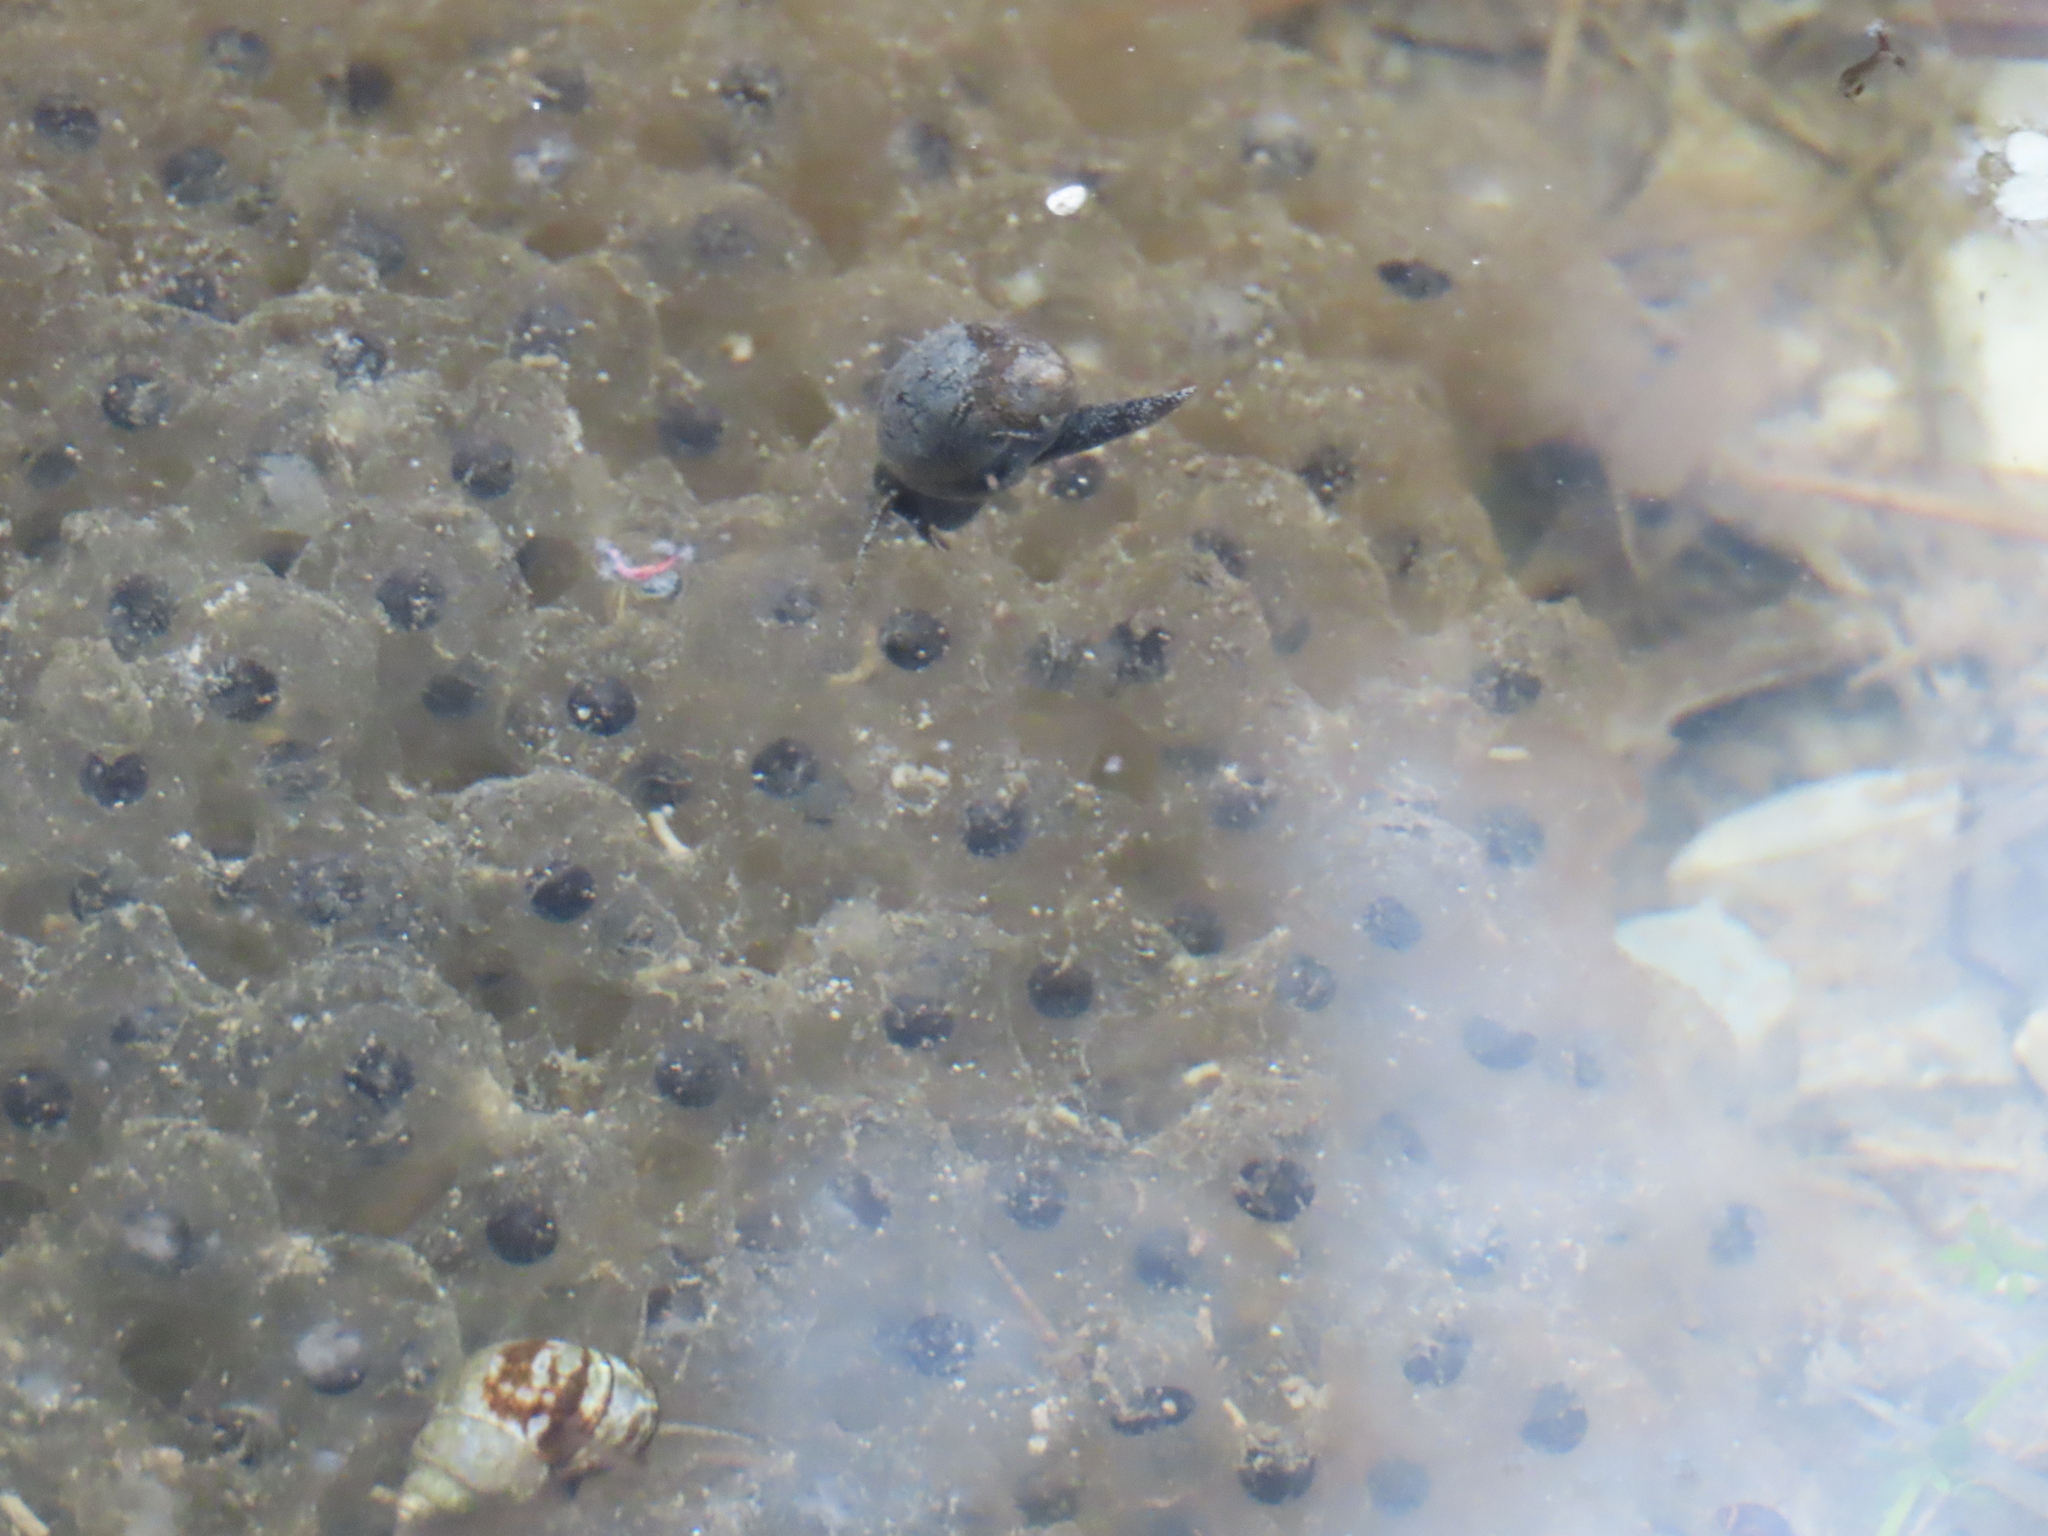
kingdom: Animalia
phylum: Chordata
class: Amphibia
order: Anura
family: Ranidae
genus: Lithobates
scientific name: Lithobates sylvaticus
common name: Wood frog
